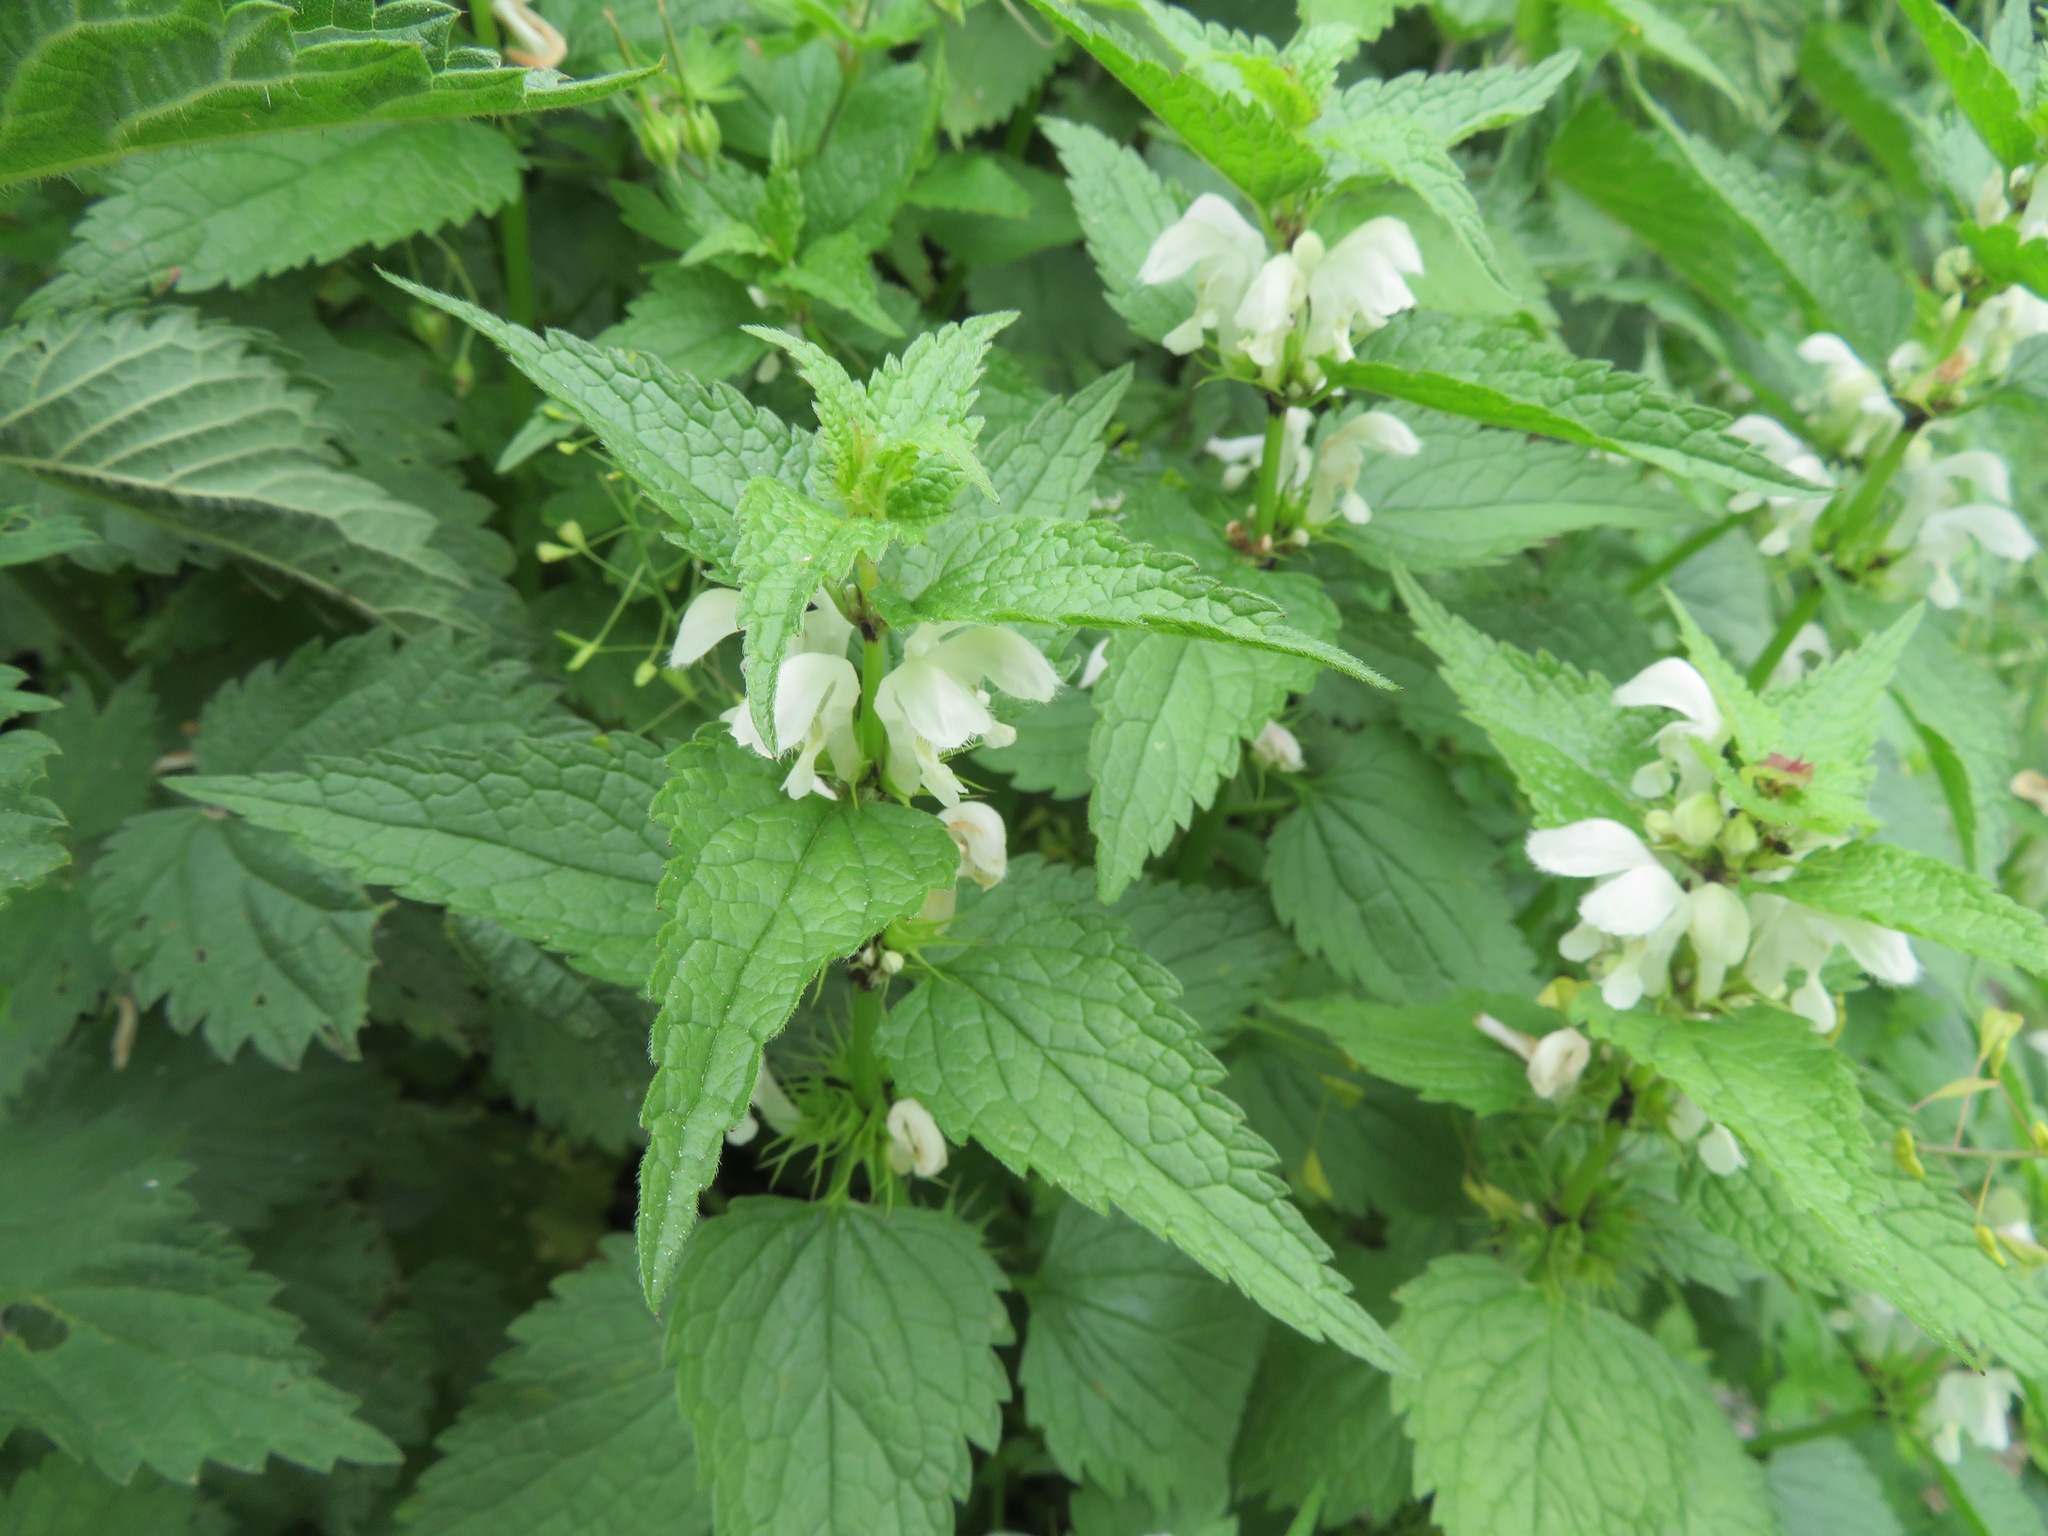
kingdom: Plantae
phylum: Tracheophyta
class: Magnoliopsida
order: Lamiales
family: Lamiaceae
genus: Lamium
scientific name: Lamium album
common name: White dead-nettle
